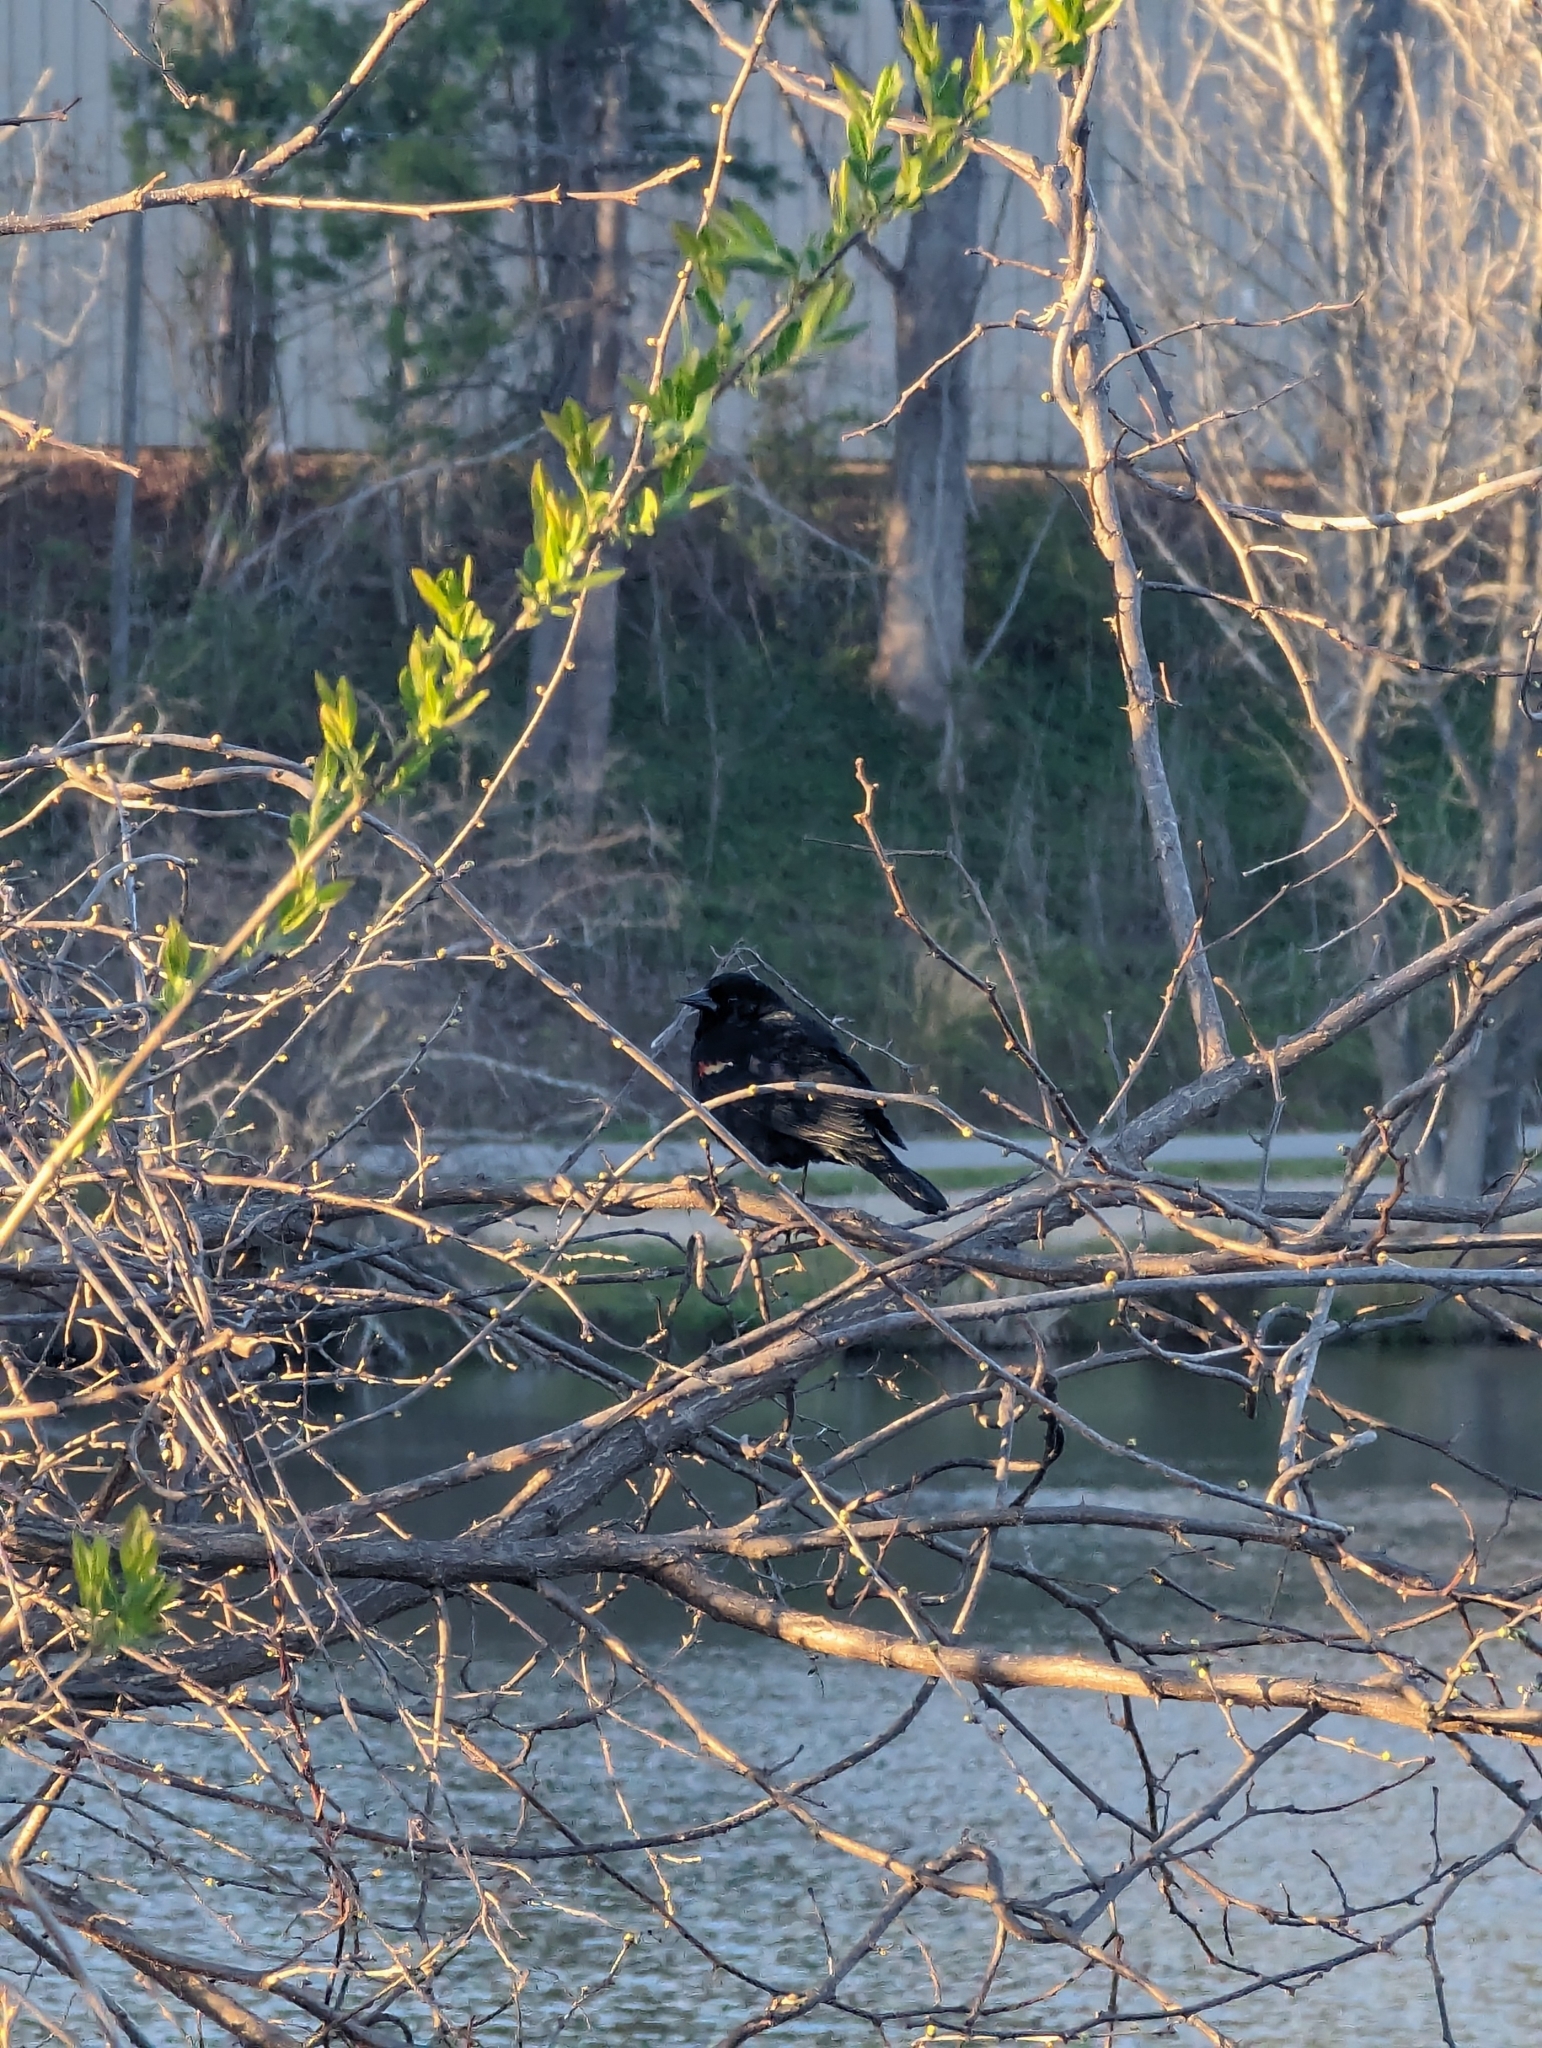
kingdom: Animalia
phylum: Chordata
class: Aves
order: Passeriformes
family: Icteridae
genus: Agelaius
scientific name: Agelaius phoeniceus
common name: Red-winged blackbird
